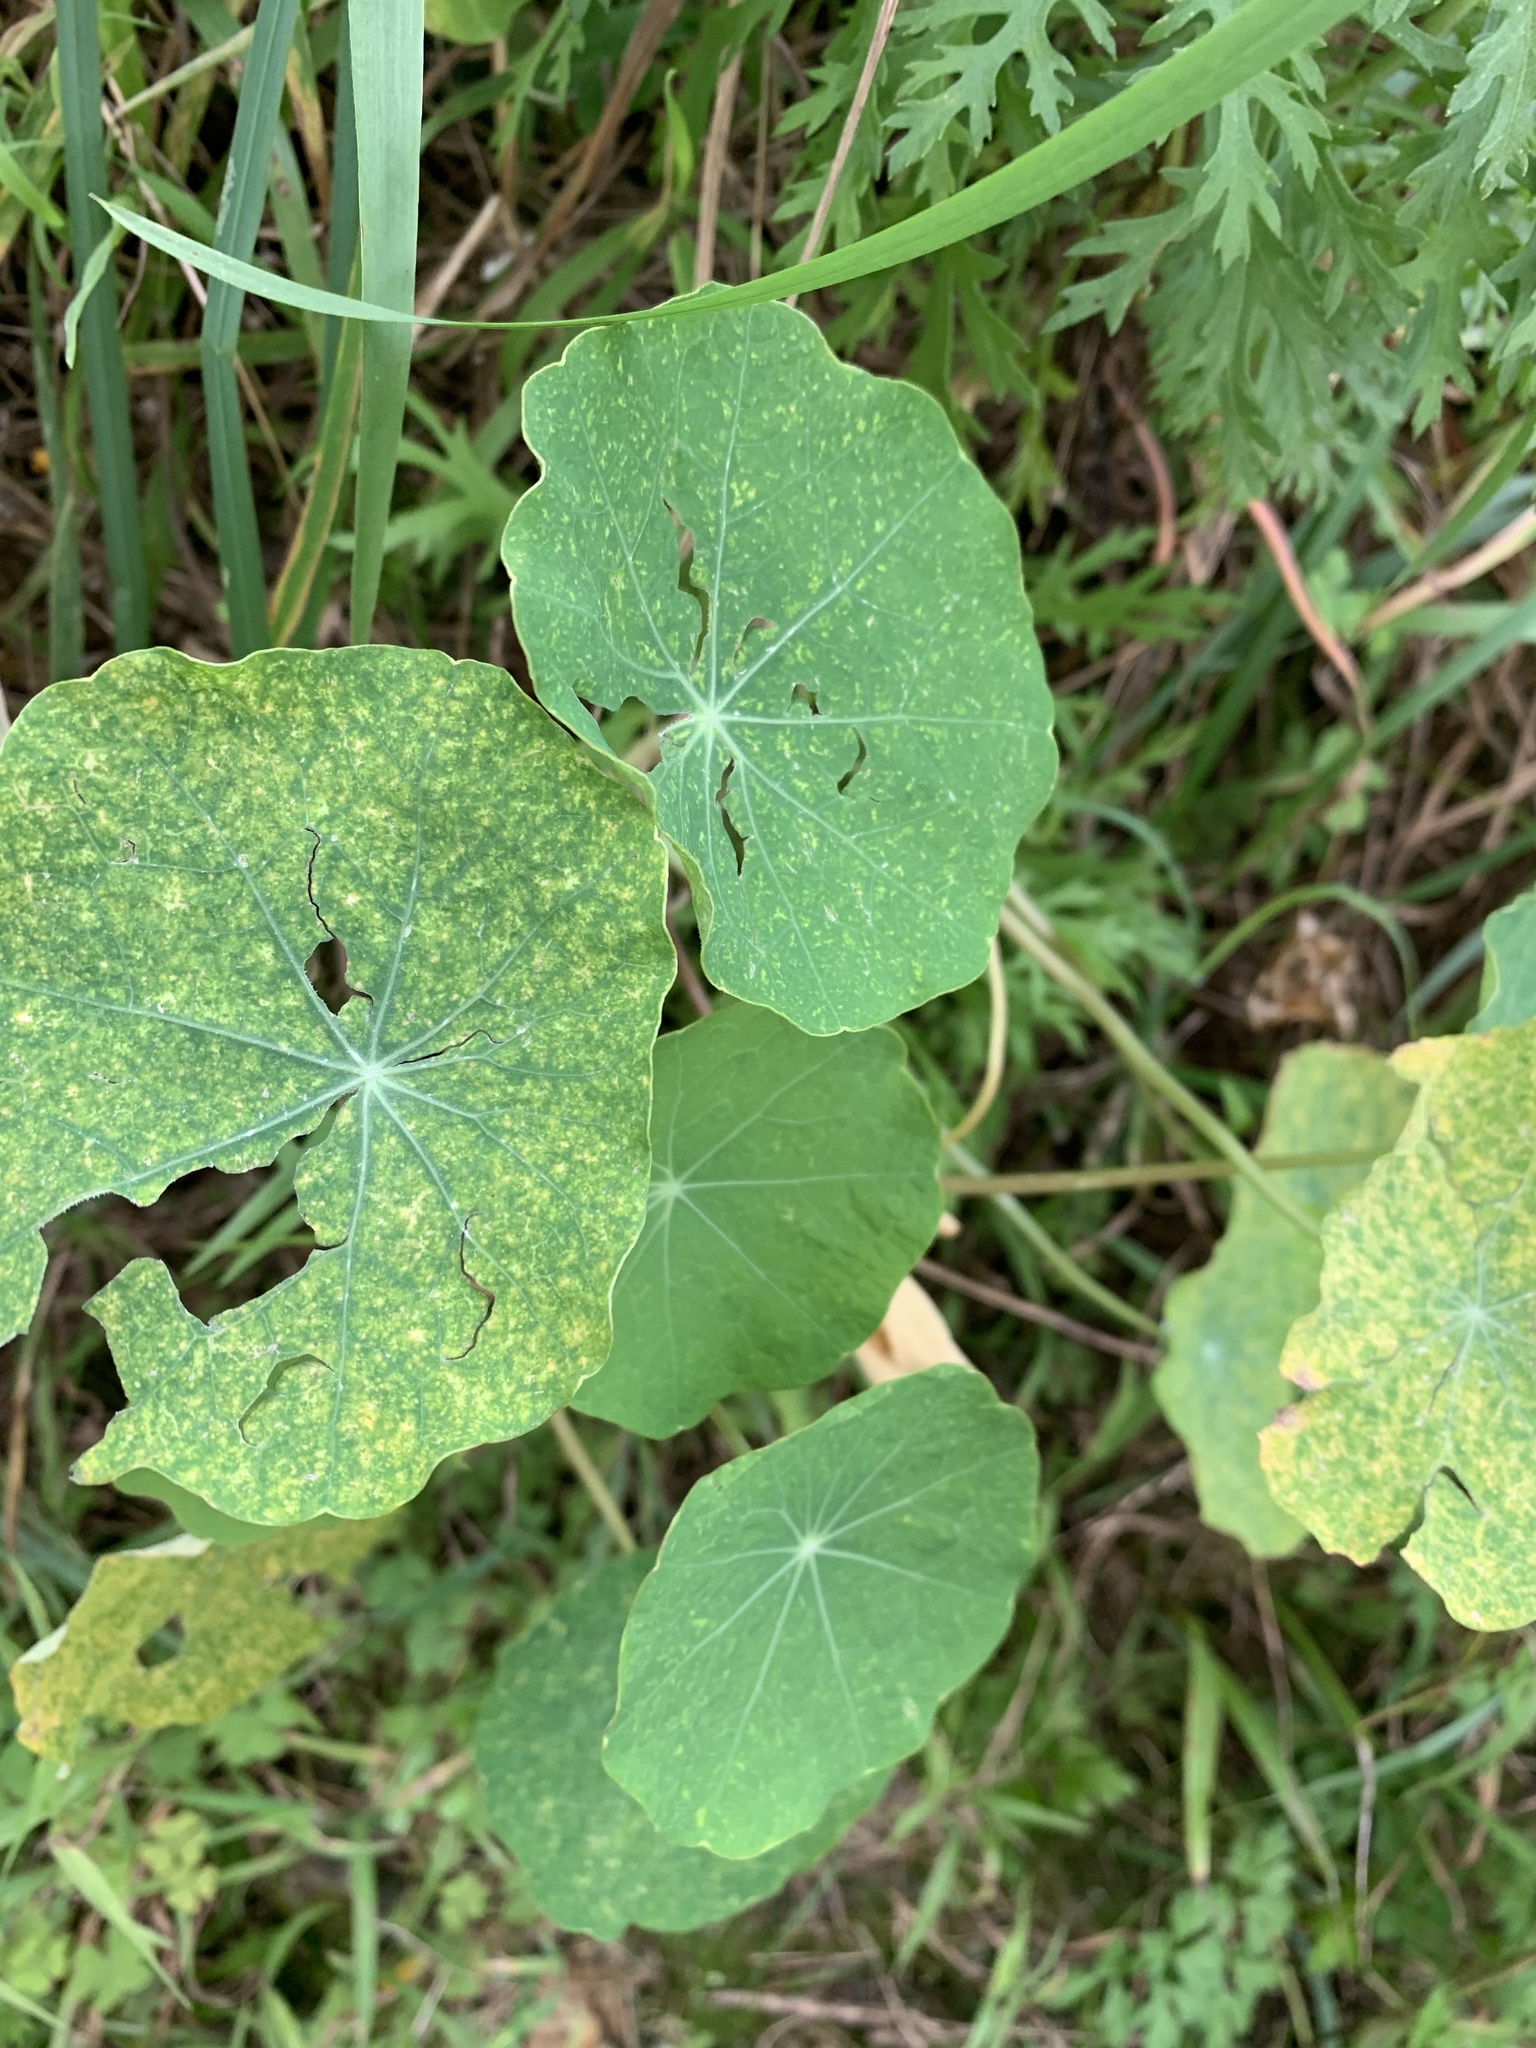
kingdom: Plantae
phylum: Tracheophyta
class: Magnoliopsida
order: Brassicales
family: Tropaeolaceae
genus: Tropaeolum
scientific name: Tropaeolum majus
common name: Nasturtium
